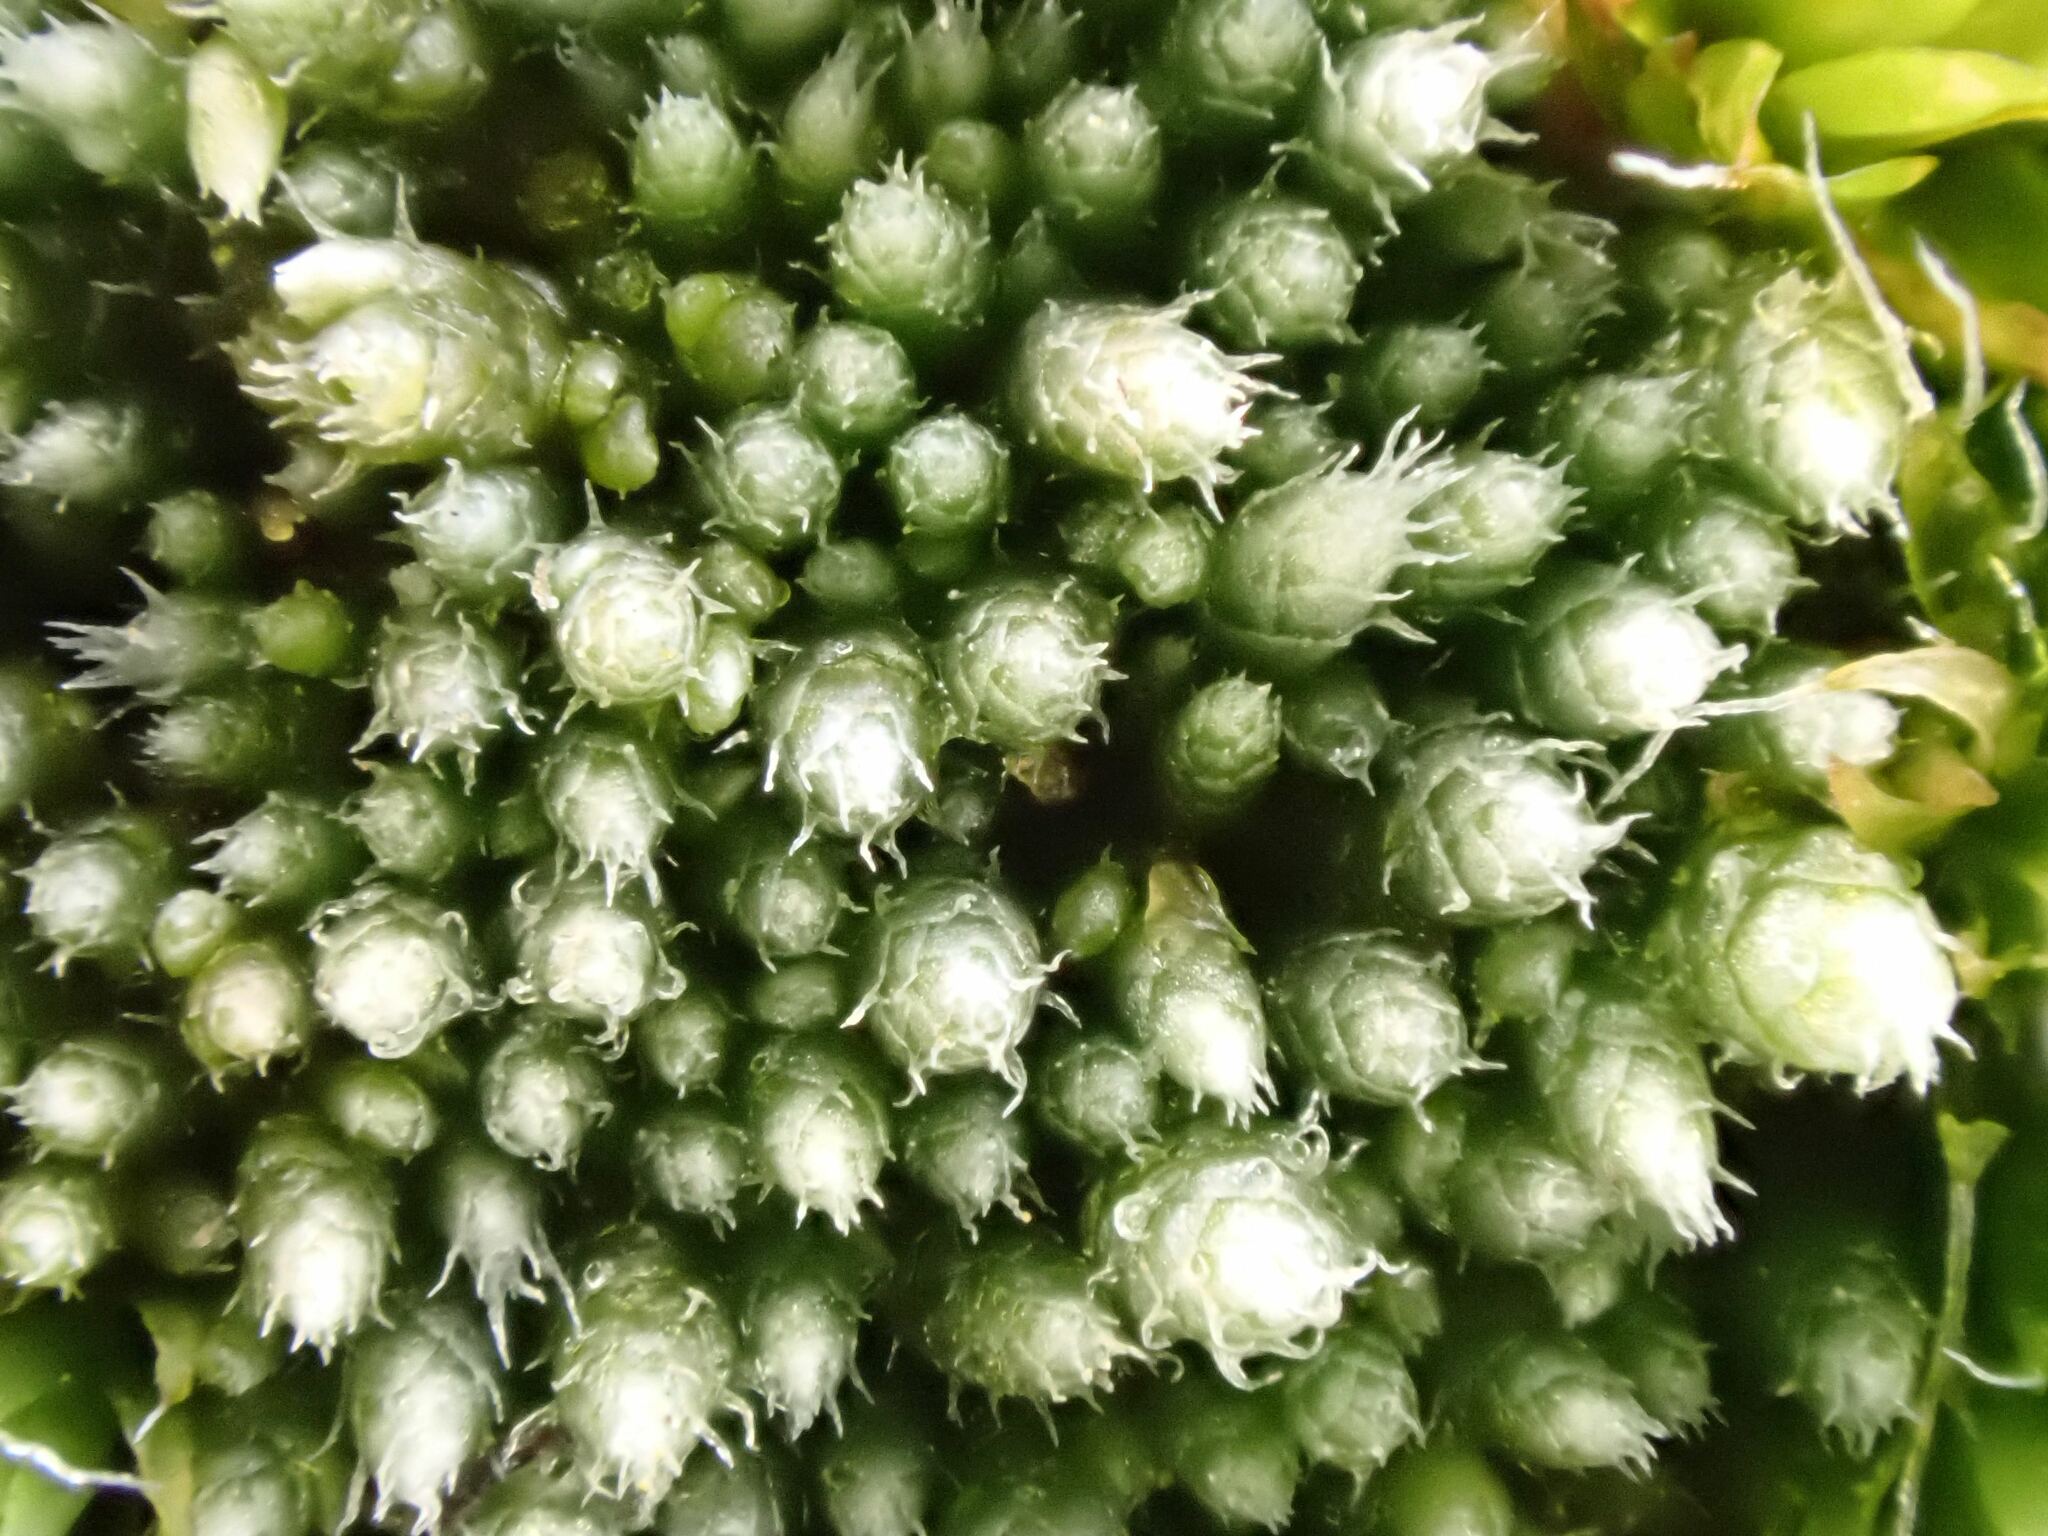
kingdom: Plantae
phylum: Bryophyta
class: Bryopsida
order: Bryales
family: Bryaceae
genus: Bryum
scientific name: Bryum argenteum
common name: Silver-moss
